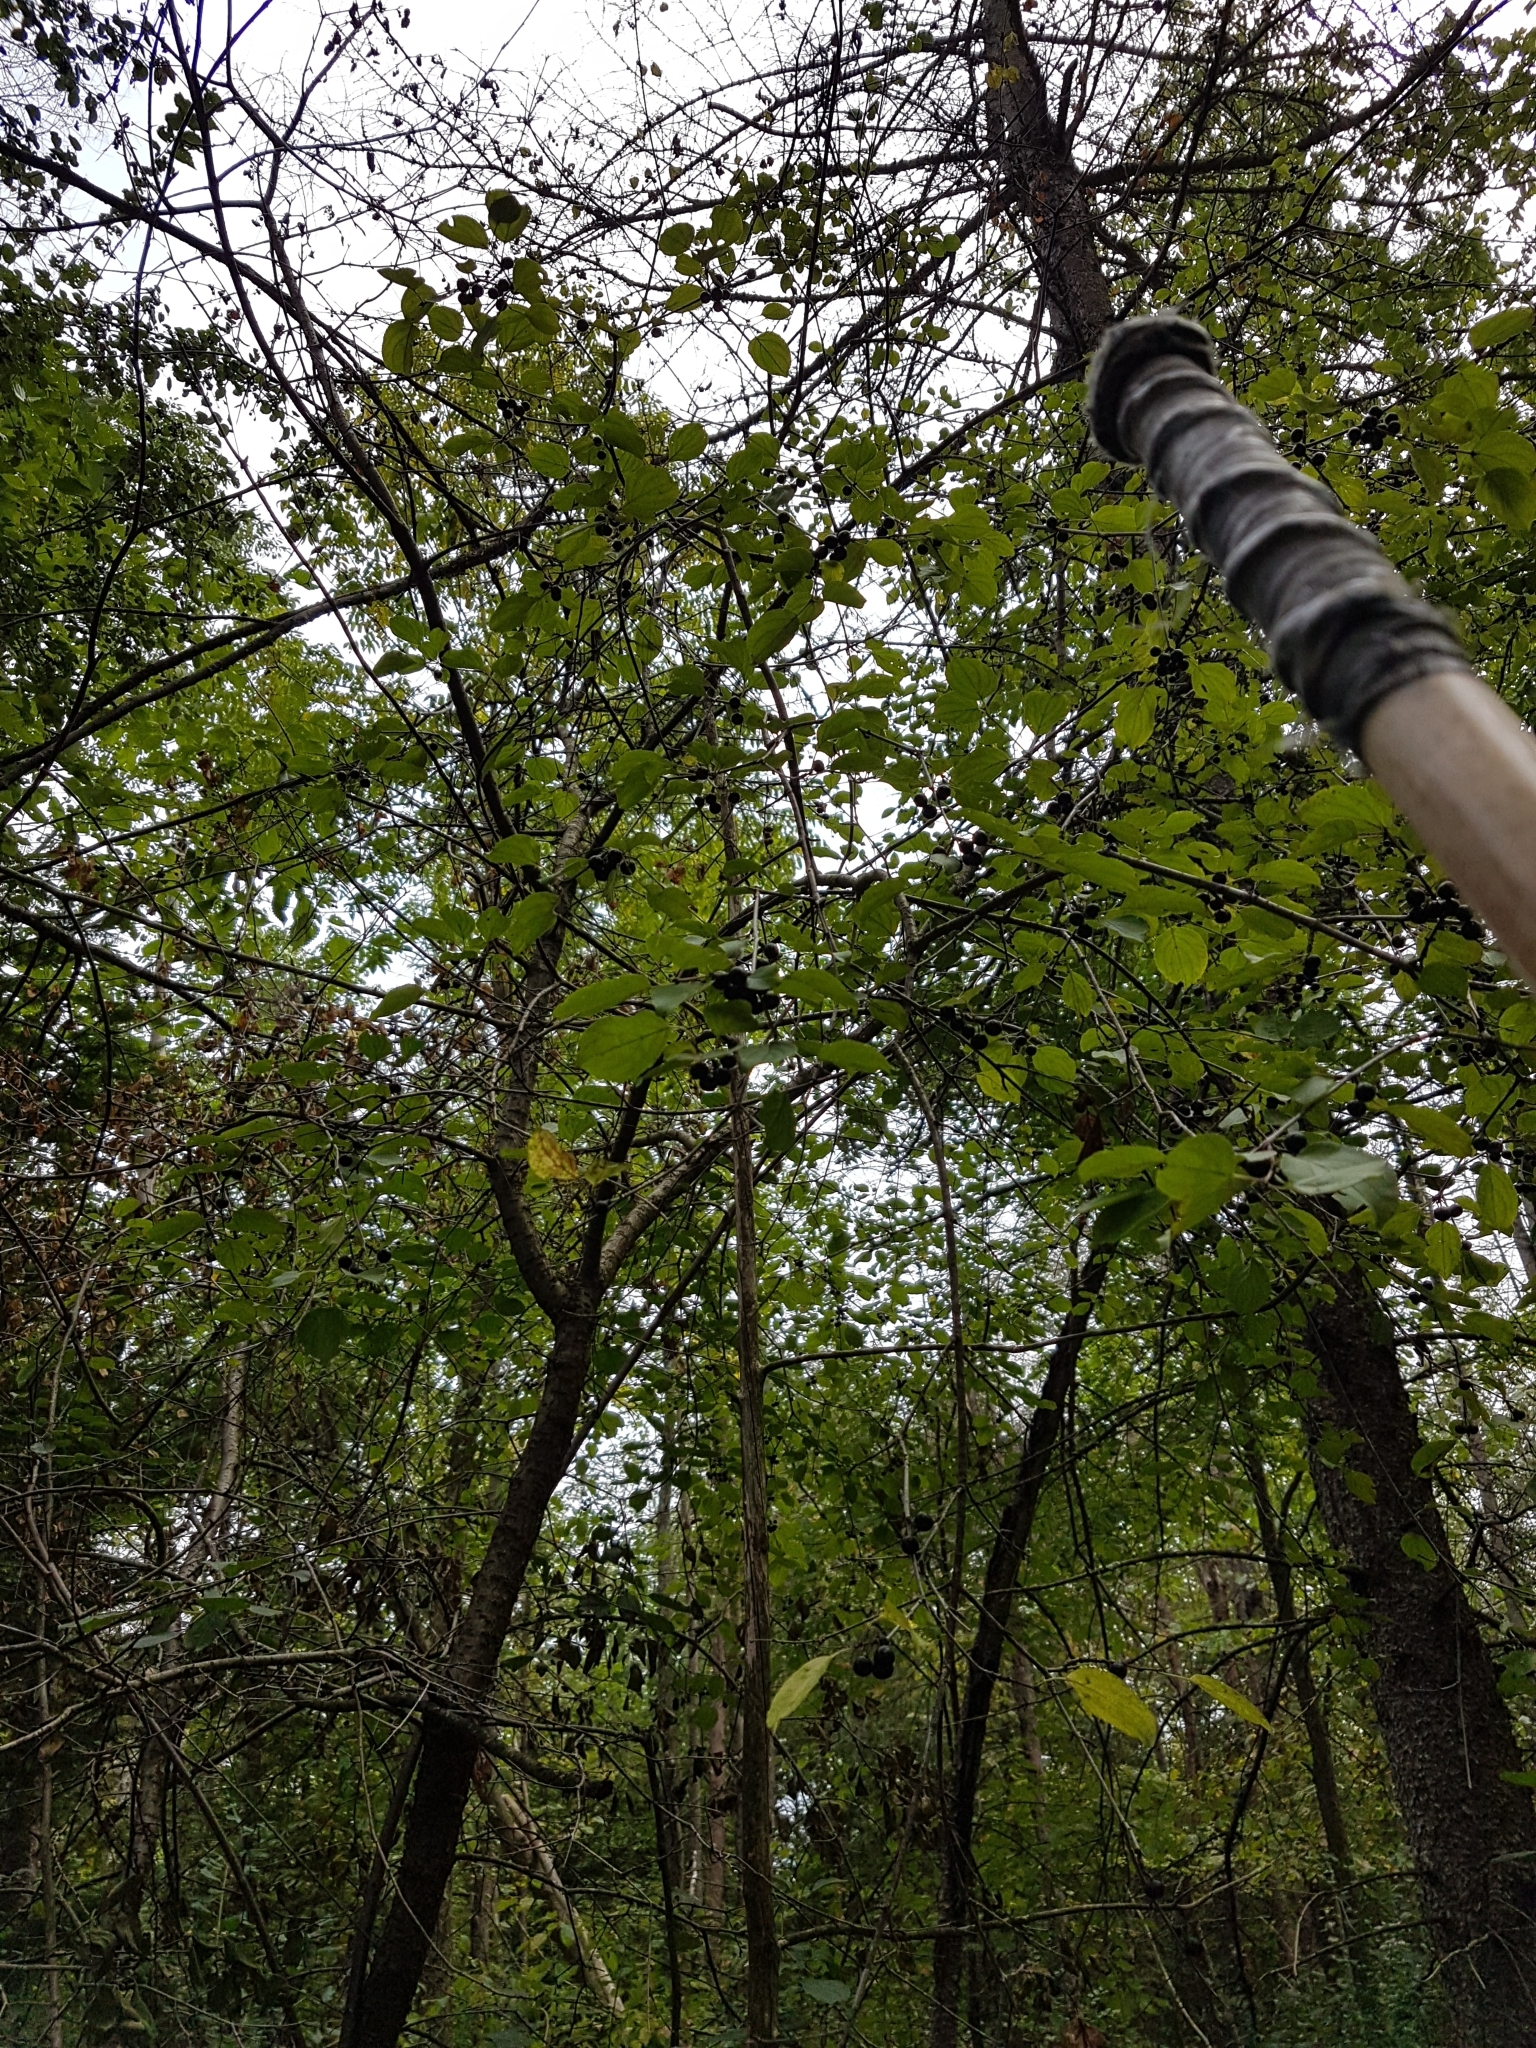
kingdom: Plantae
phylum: Tracheophyta
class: Magnoliopsida
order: Rosales
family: Rhamnaceae
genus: Rhamnus
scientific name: Rhamnus cathartica
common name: Common buckthorn
